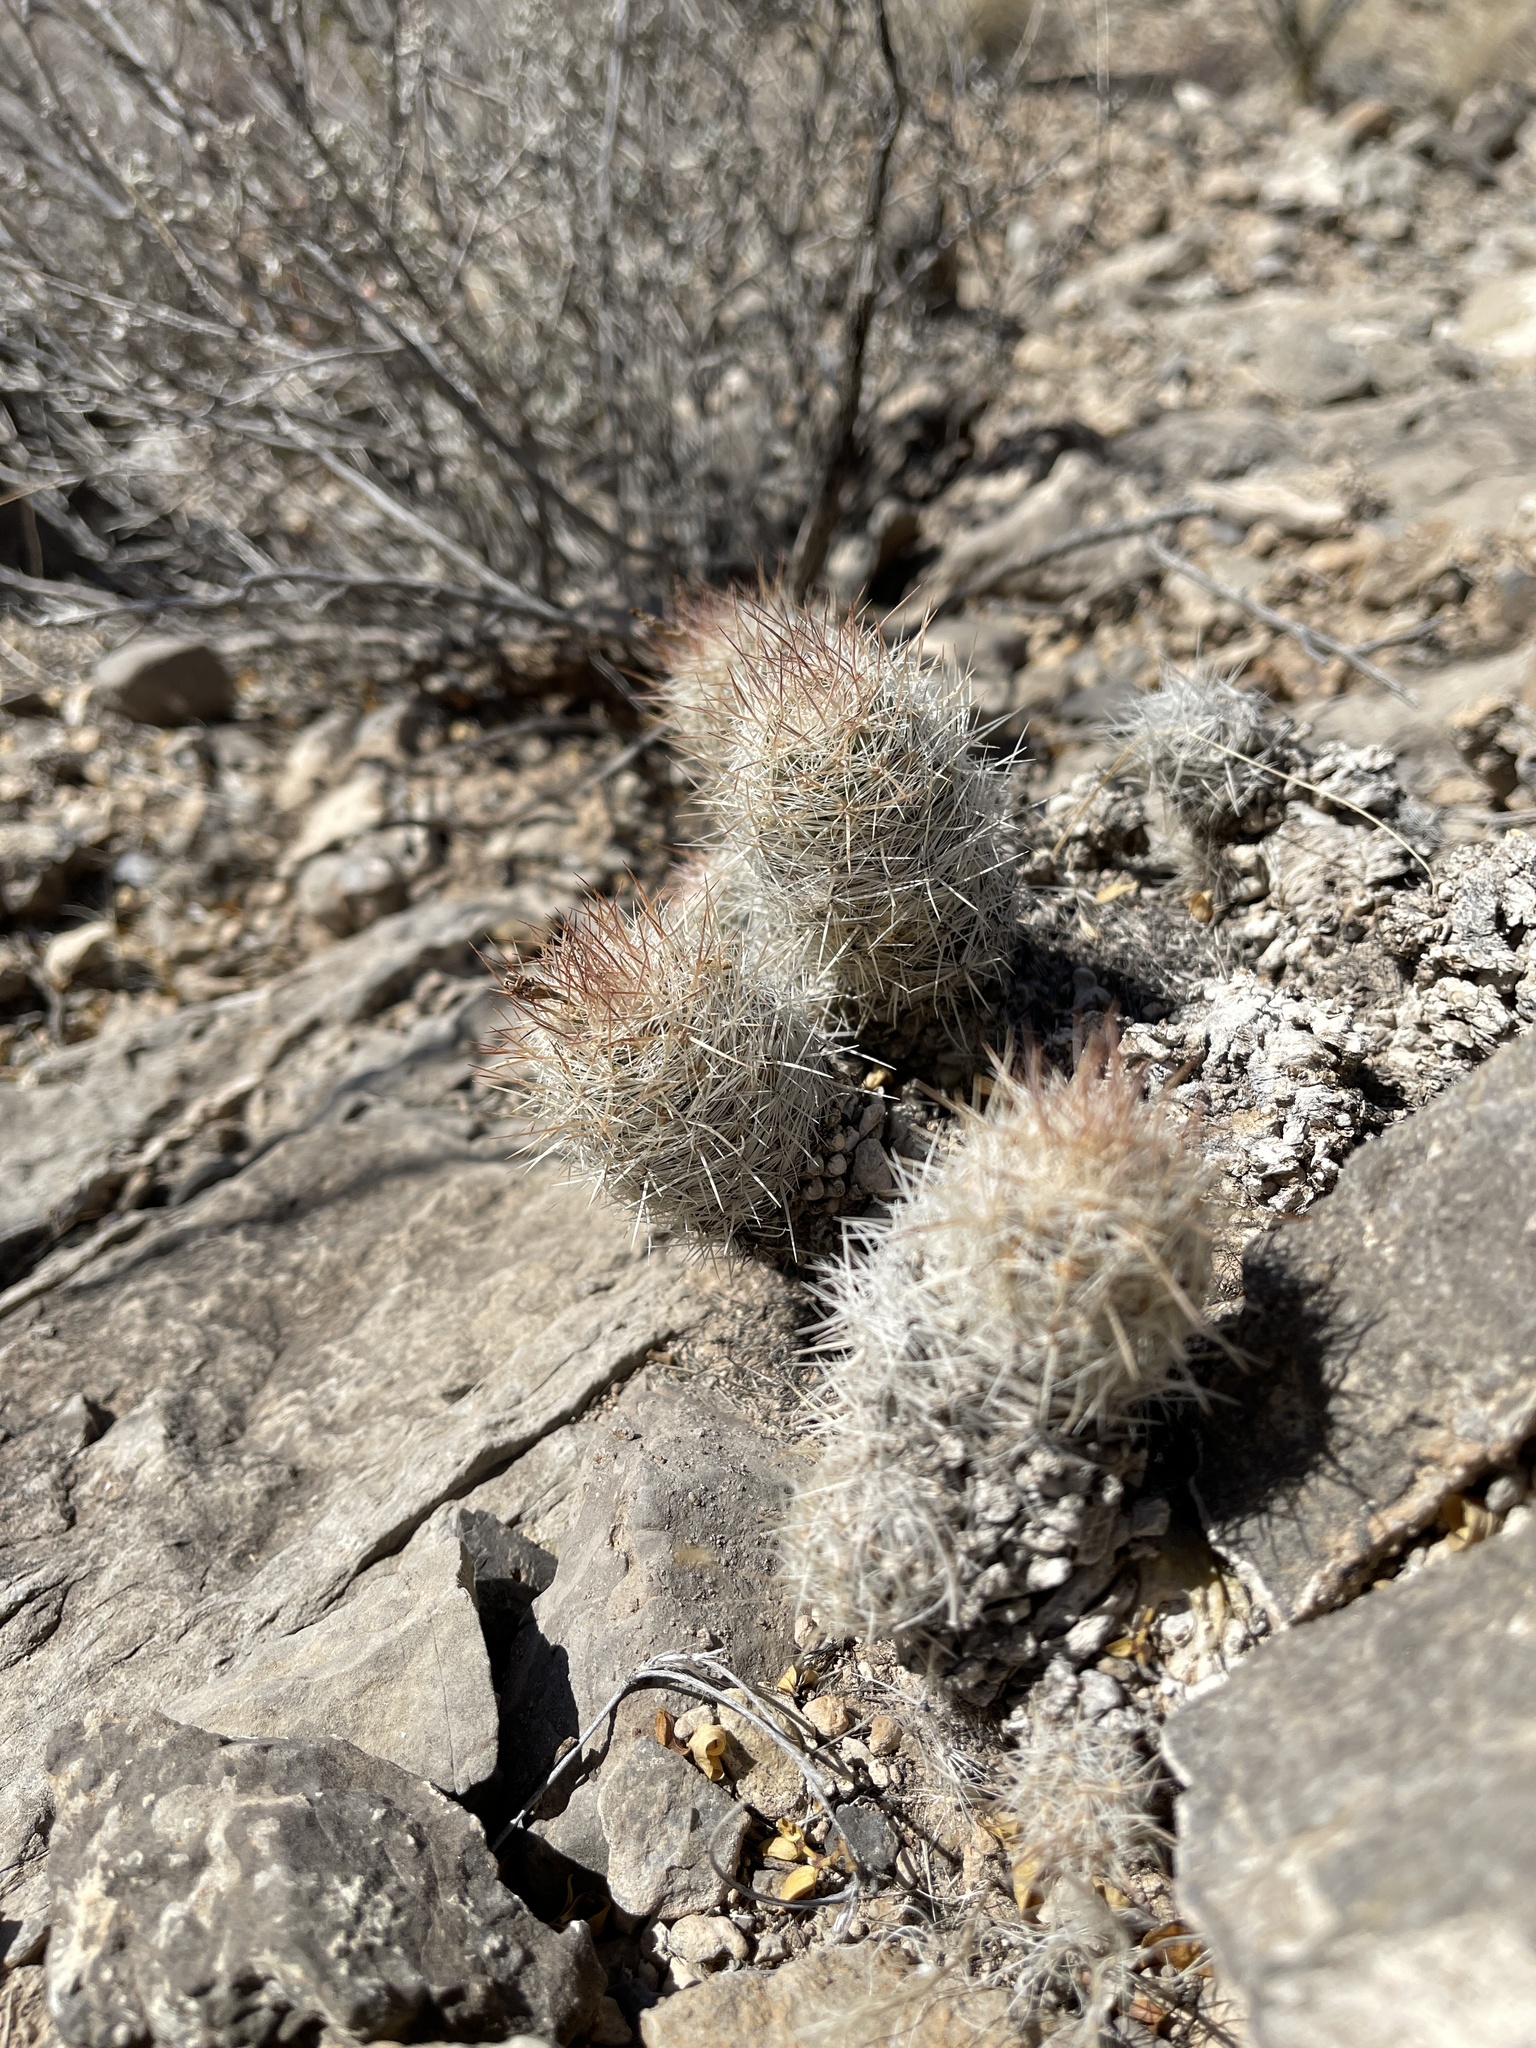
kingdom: Plantae
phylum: Tracheophyta
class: Magnoliopsida
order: Caryophyllales
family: Cactaceae
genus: Pelecyphora
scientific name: Pelecyphora tuberculosa
